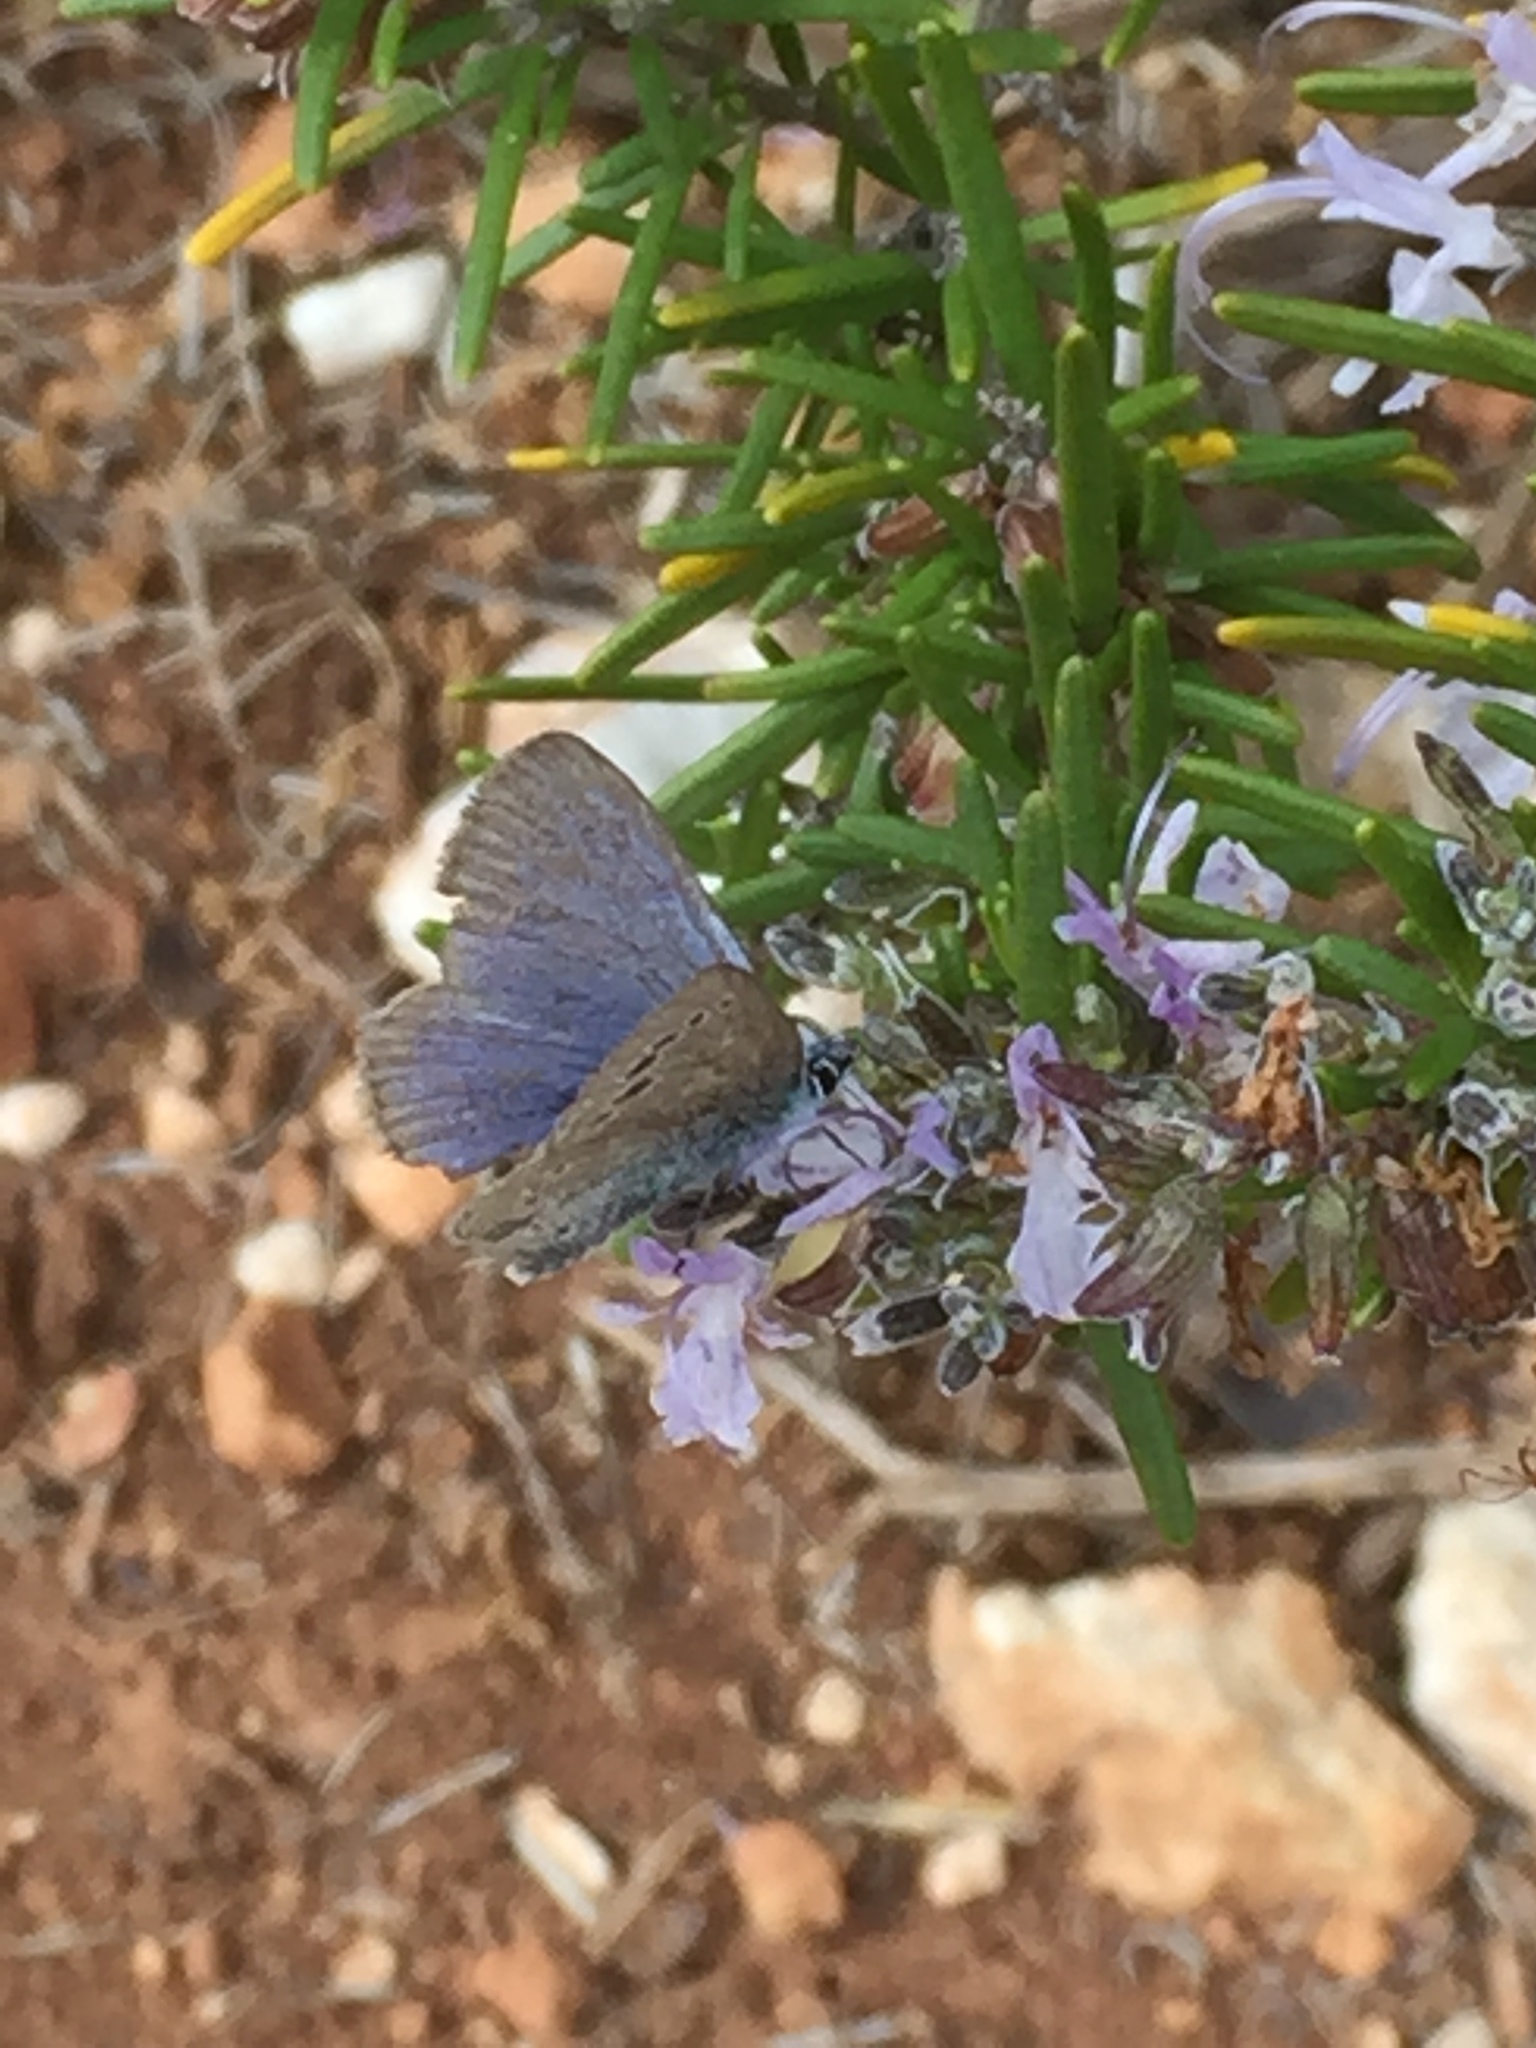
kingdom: Animalia
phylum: Arthropoda
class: Insecta
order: Lepidoptera
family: Lycaenidae
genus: Glaucopsyche
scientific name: Glaucopsyche melanops
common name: Black-eyed blue
